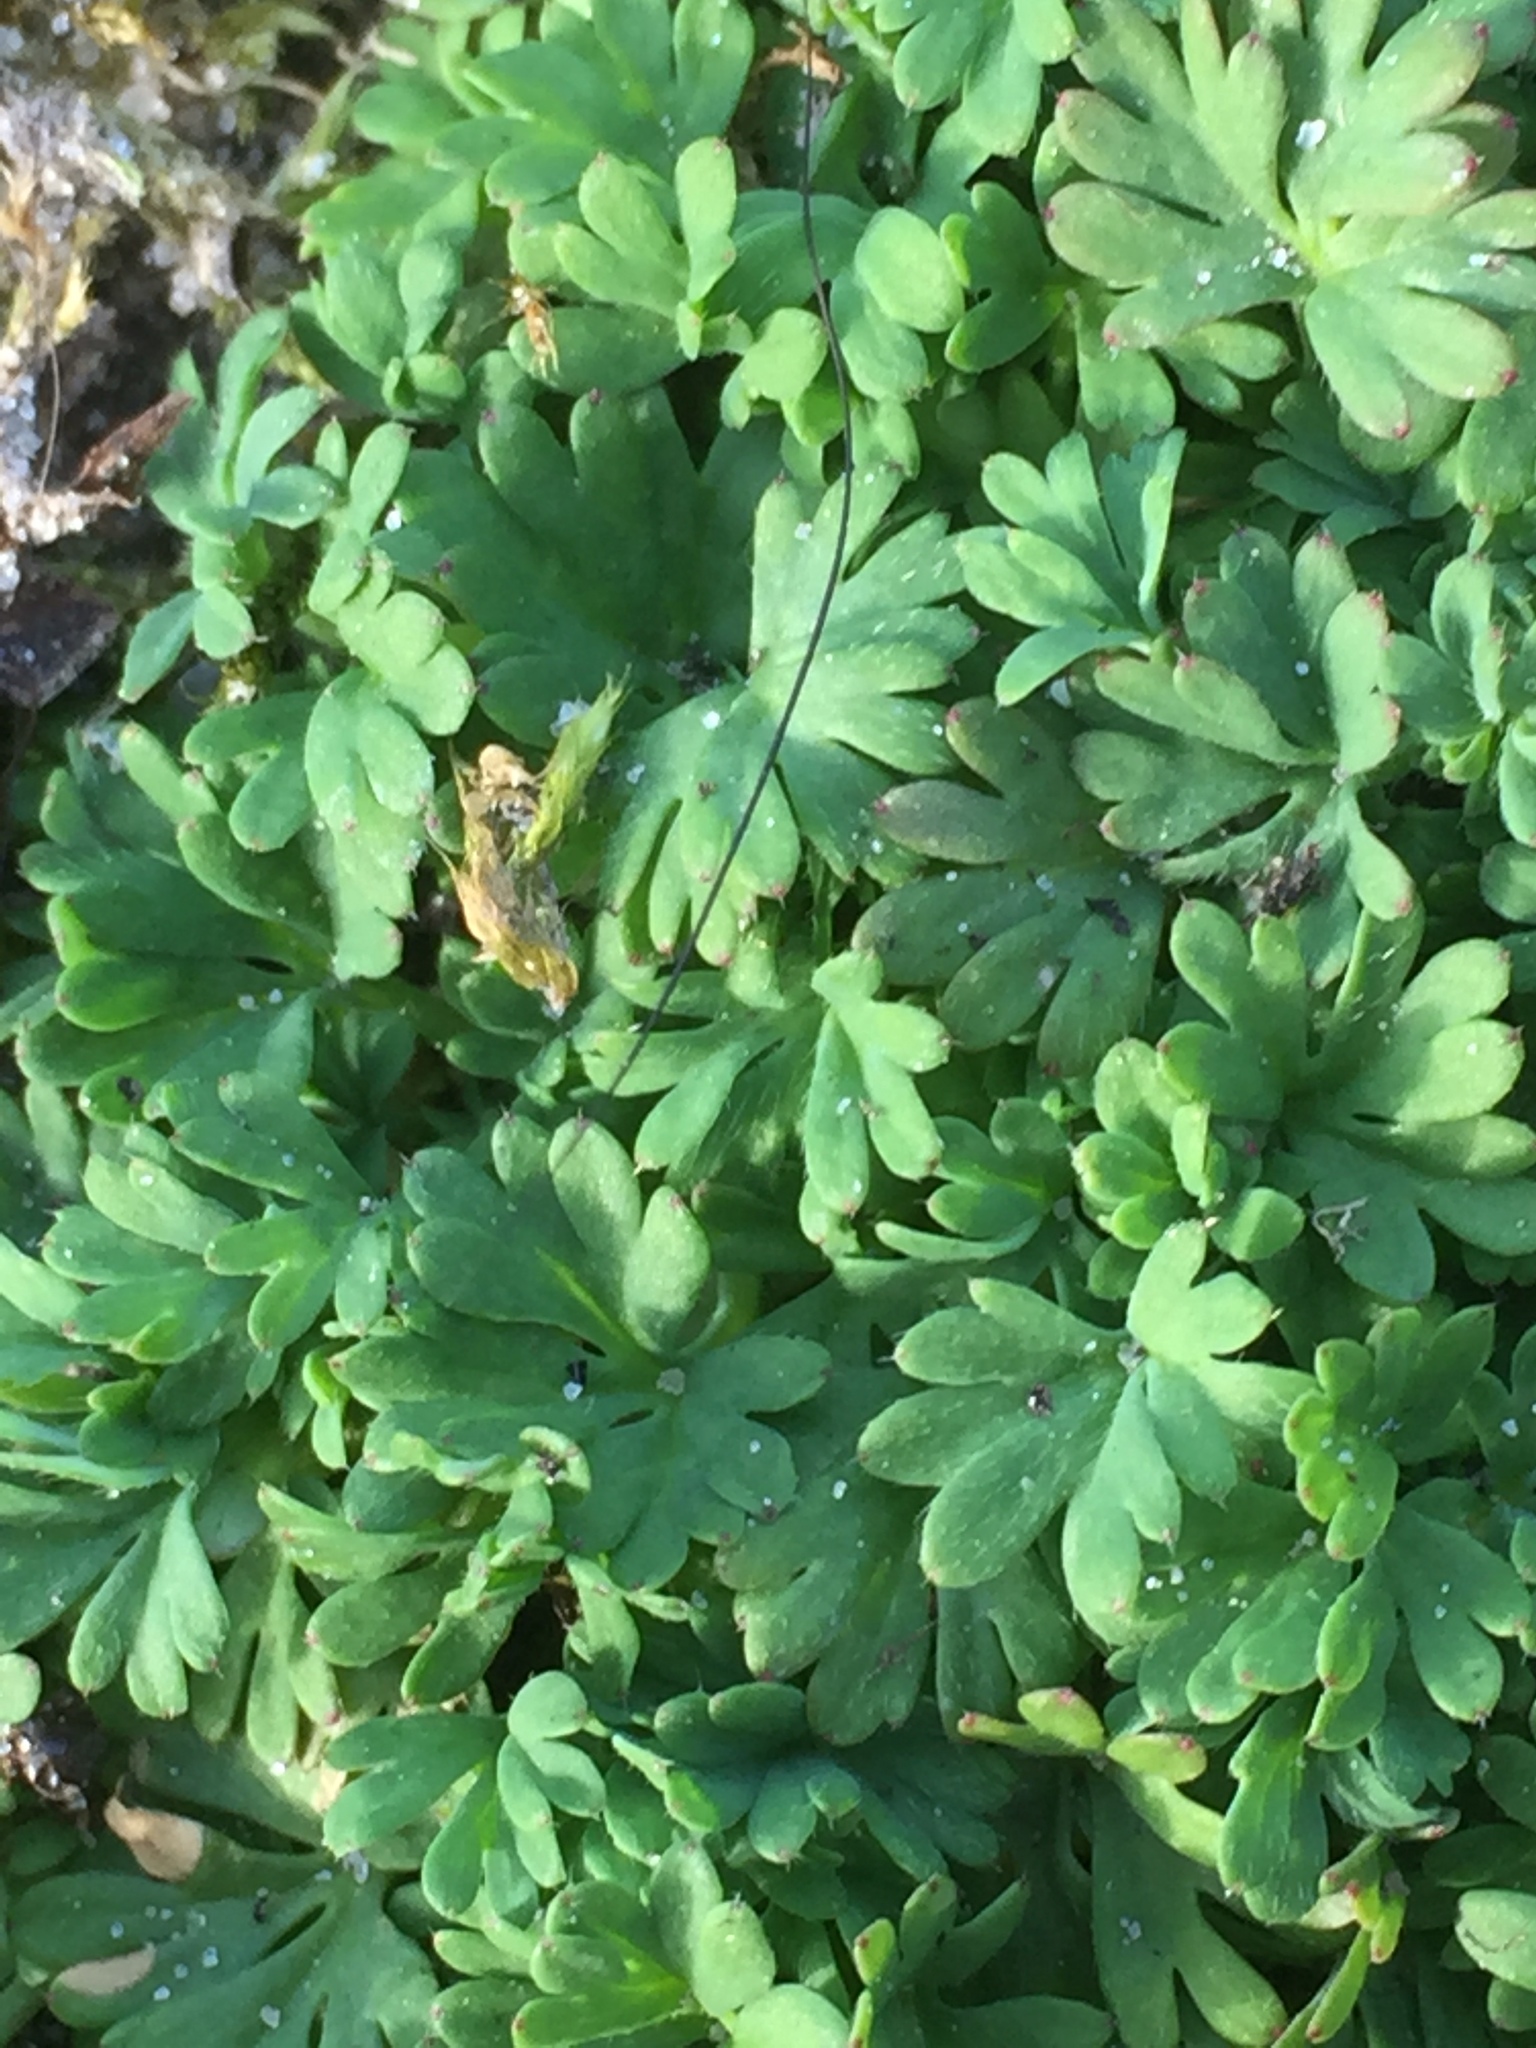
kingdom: Plantae
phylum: Tracheophyta
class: Magnoliopsida
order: Dipsacales
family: Viburnaceae
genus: Adoxa
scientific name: Adoxa moschatellina
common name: Moschatel
